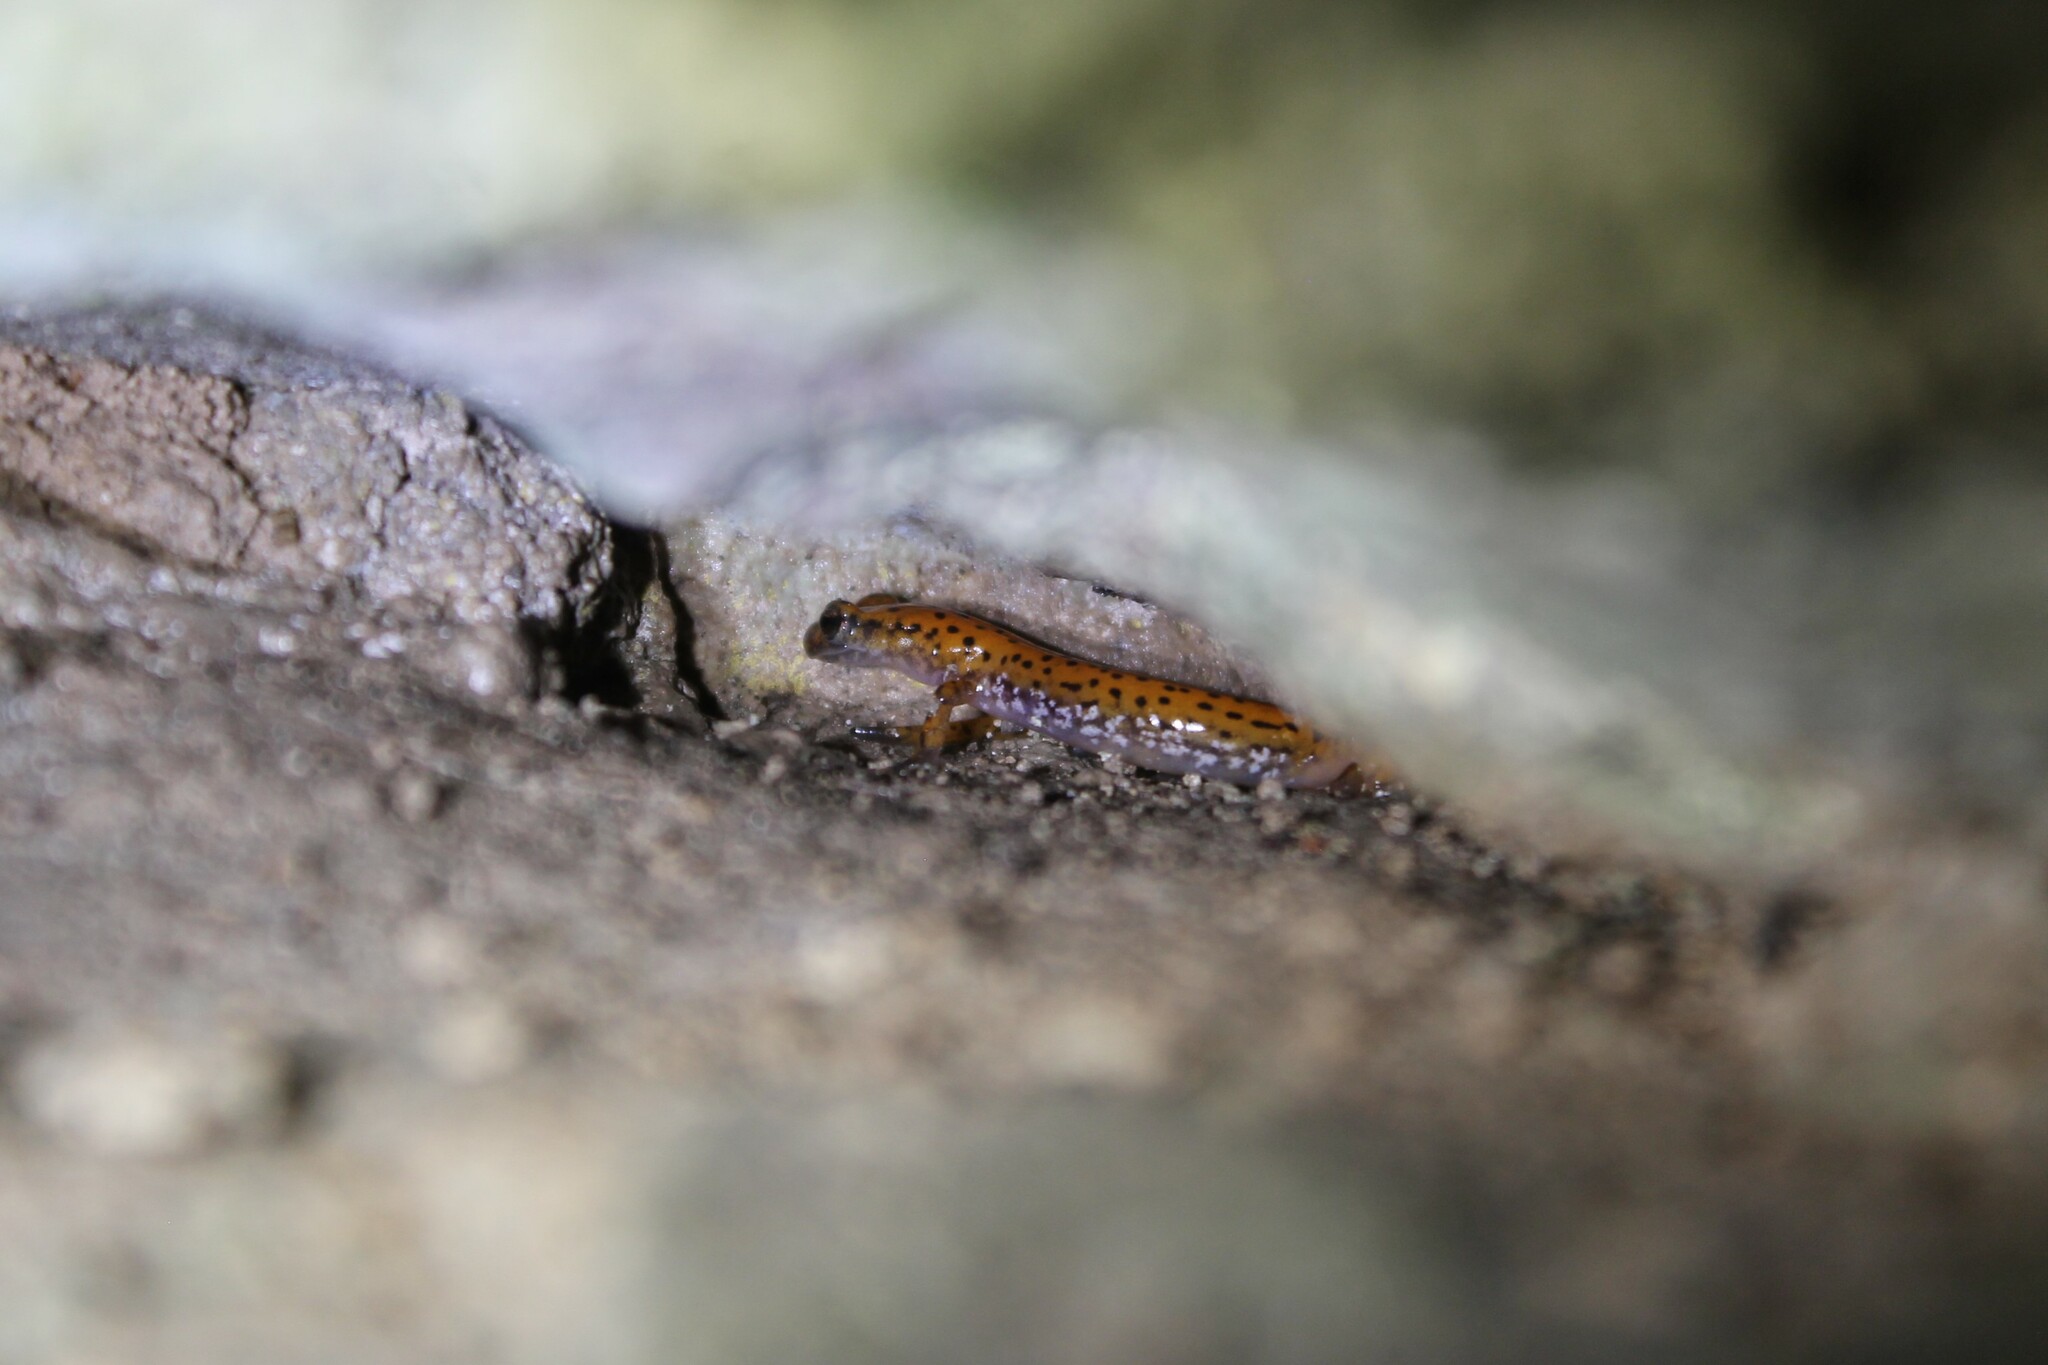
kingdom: Animalia
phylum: Chordata
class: Amphibia
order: Caudata
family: Plethodontidae
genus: Eurycea
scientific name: Eurycea lucifuga
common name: Cave salamander
